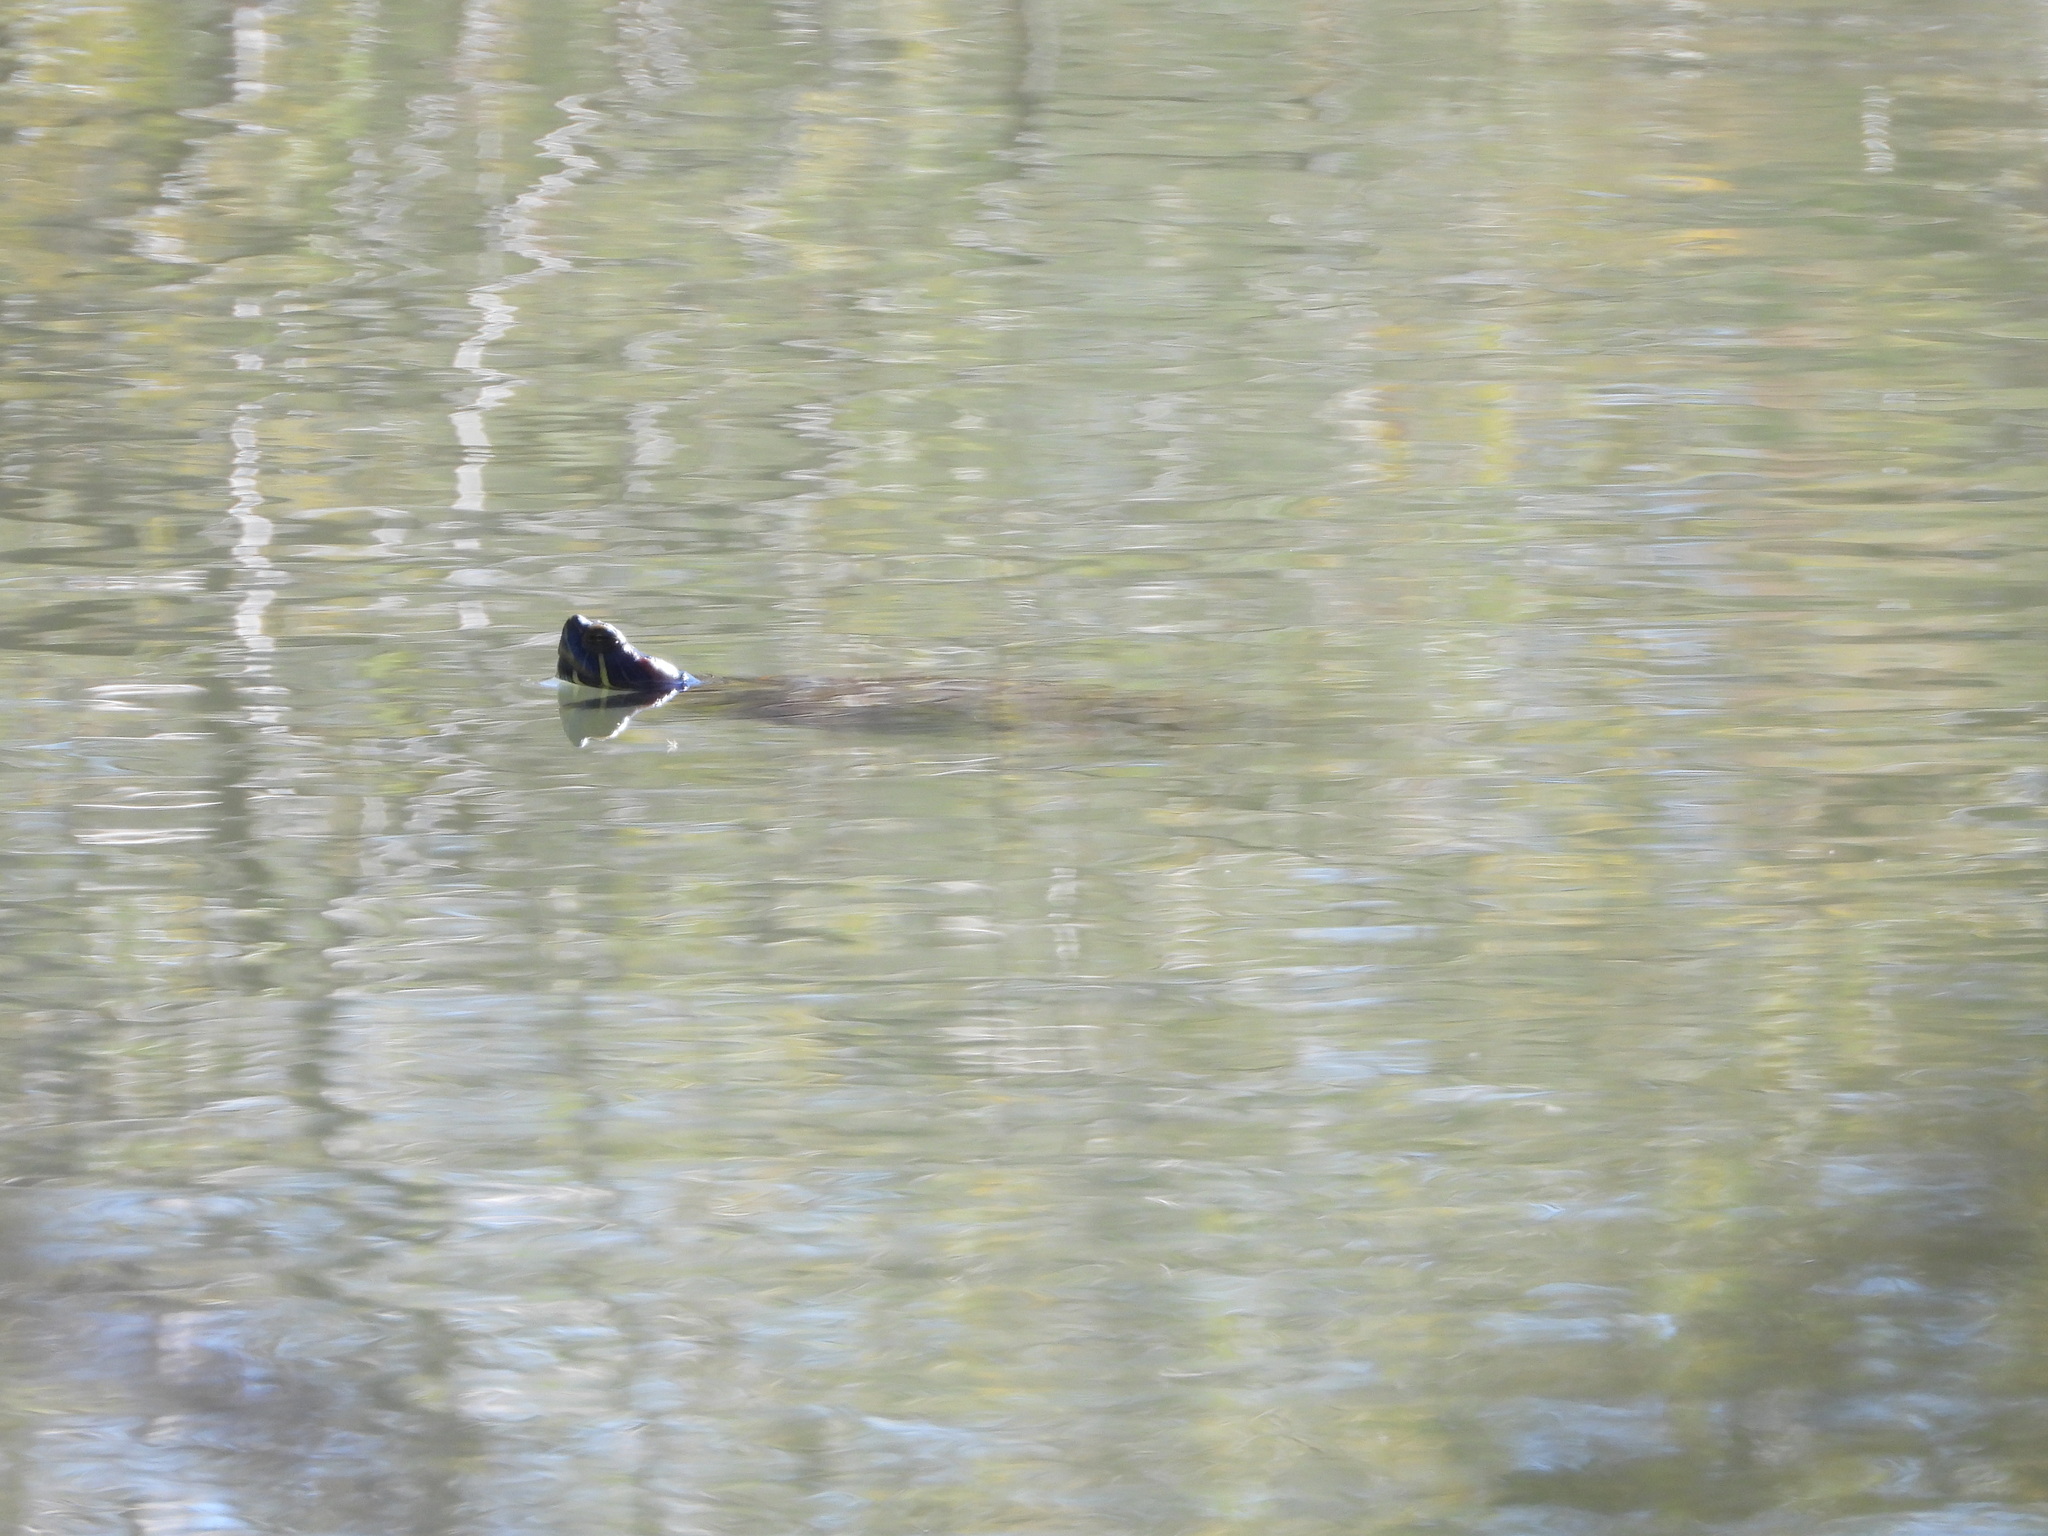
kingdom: Animalia
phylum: Chordata
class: Testudines
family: Emydidae
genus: Trachemys
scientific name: Trachemys scripta
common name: Slider
